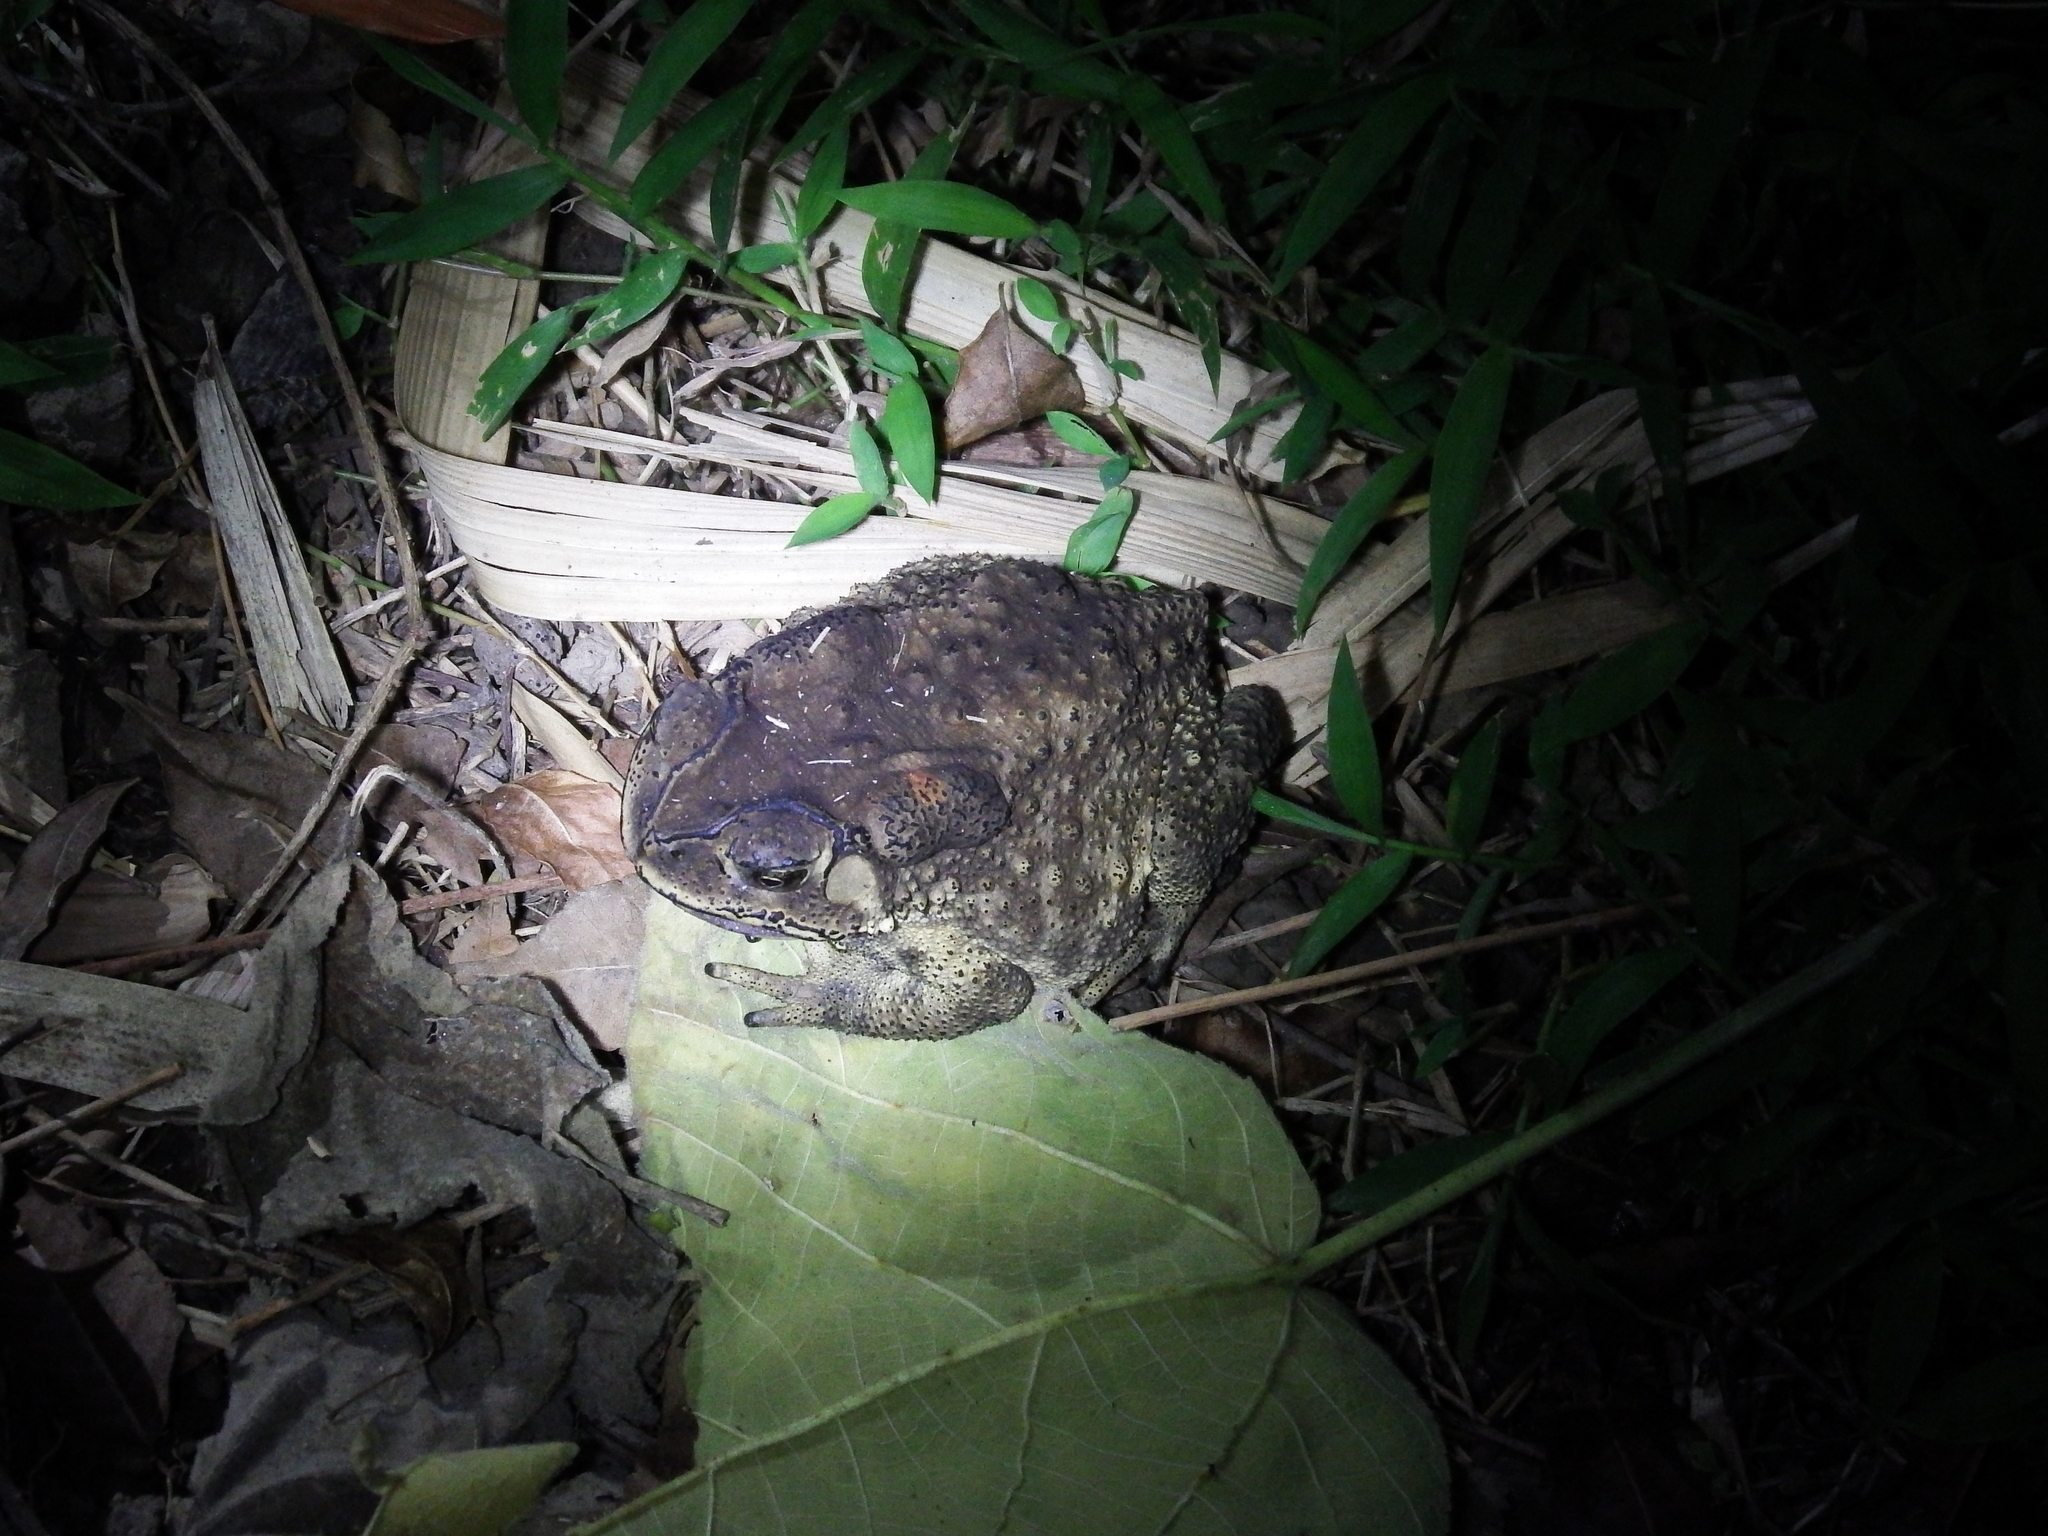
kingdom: Animalia
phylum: Chordata
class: Amphibia
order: Anura
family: Bufonidae
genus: Duttaphrynus
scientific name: Duttaphrynus melanostictus
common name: Common sunda toad
